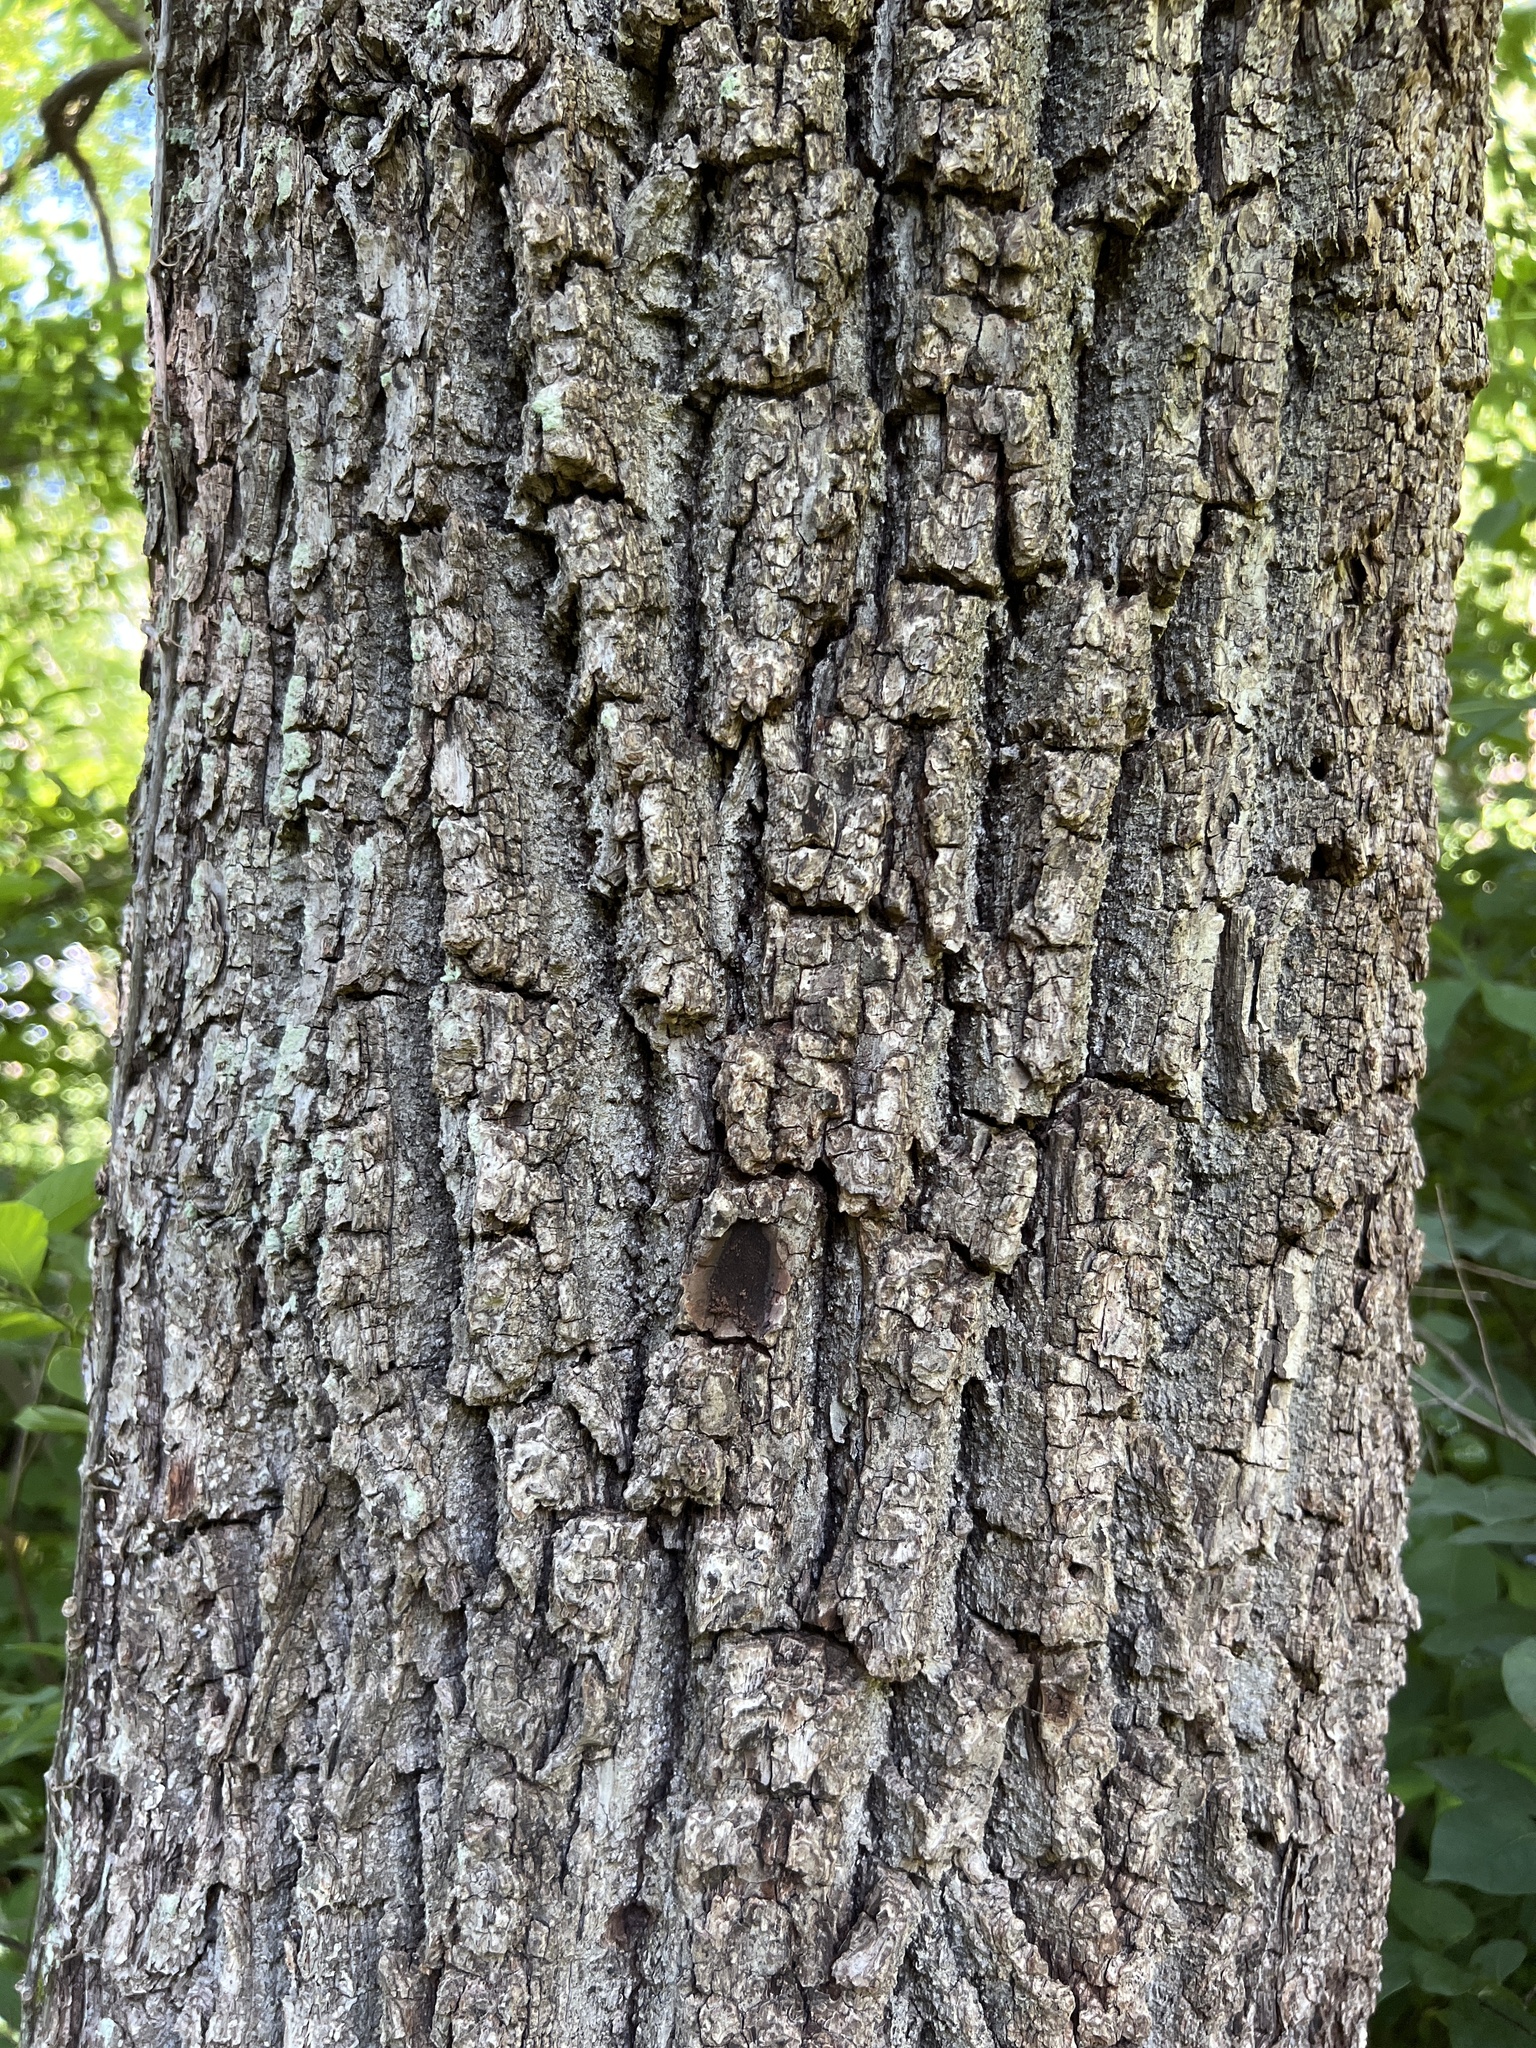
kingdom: Plantae
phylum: Tracheophyta
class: Magnoliopsida
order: Fagales
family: Juglandaceae
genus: Juglans
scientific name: Juglans nigra
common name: Black walnut
